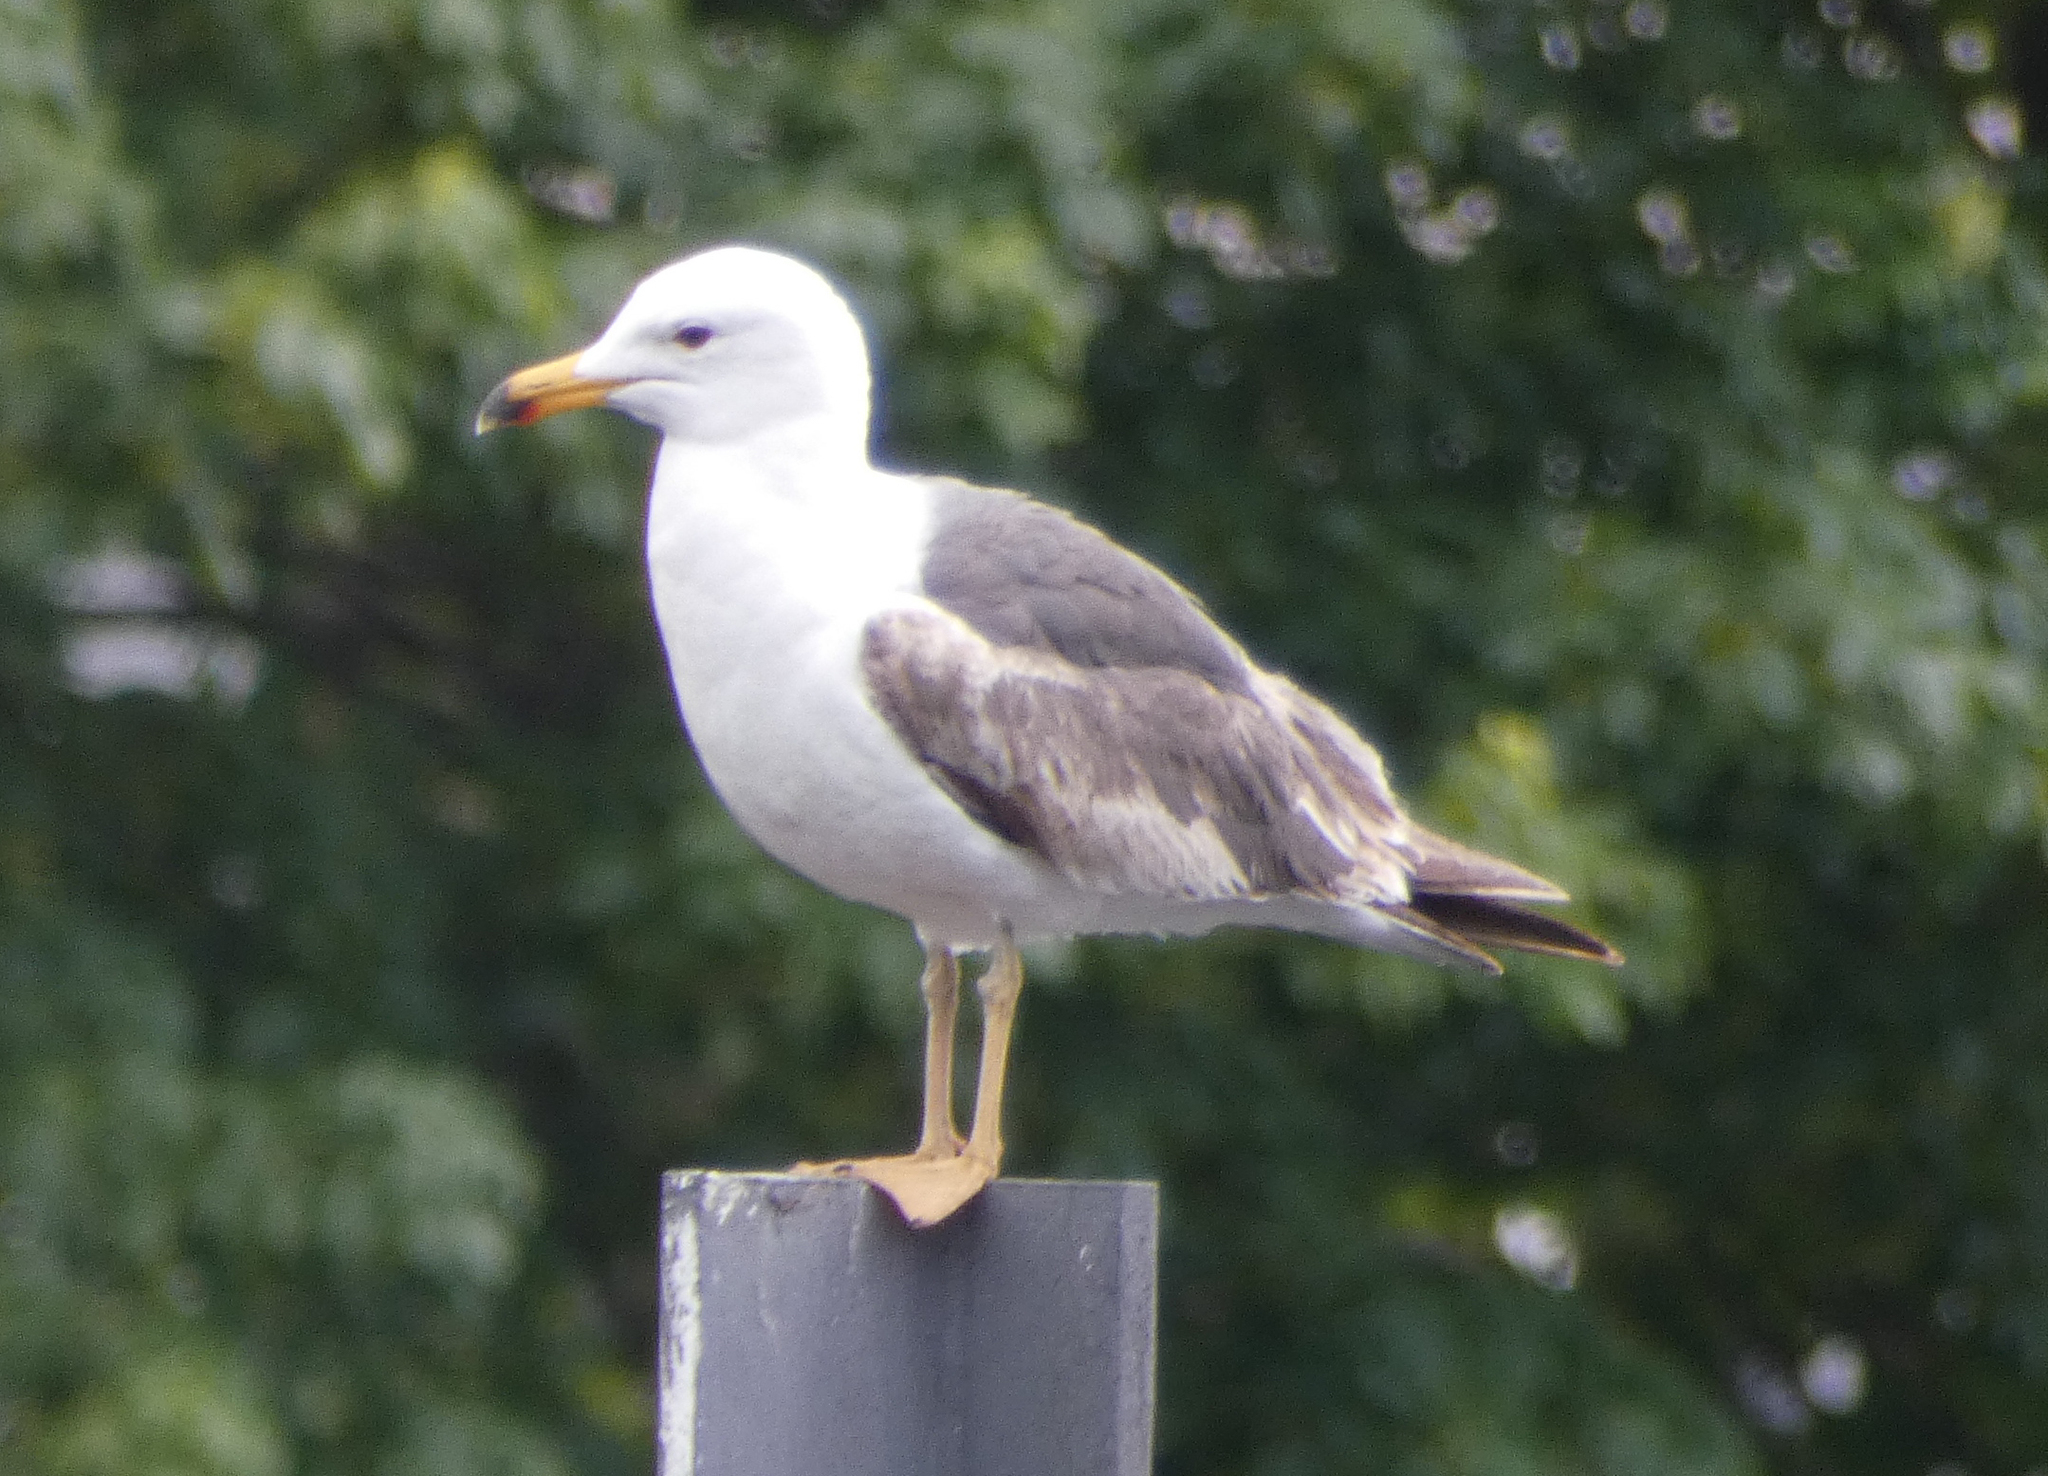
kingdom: Animalia
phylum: Chordata
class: Aves
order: Charadriiformes
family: Laridae
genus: Larus
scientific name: Larus fuscus
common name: Lesser black-backed gull
